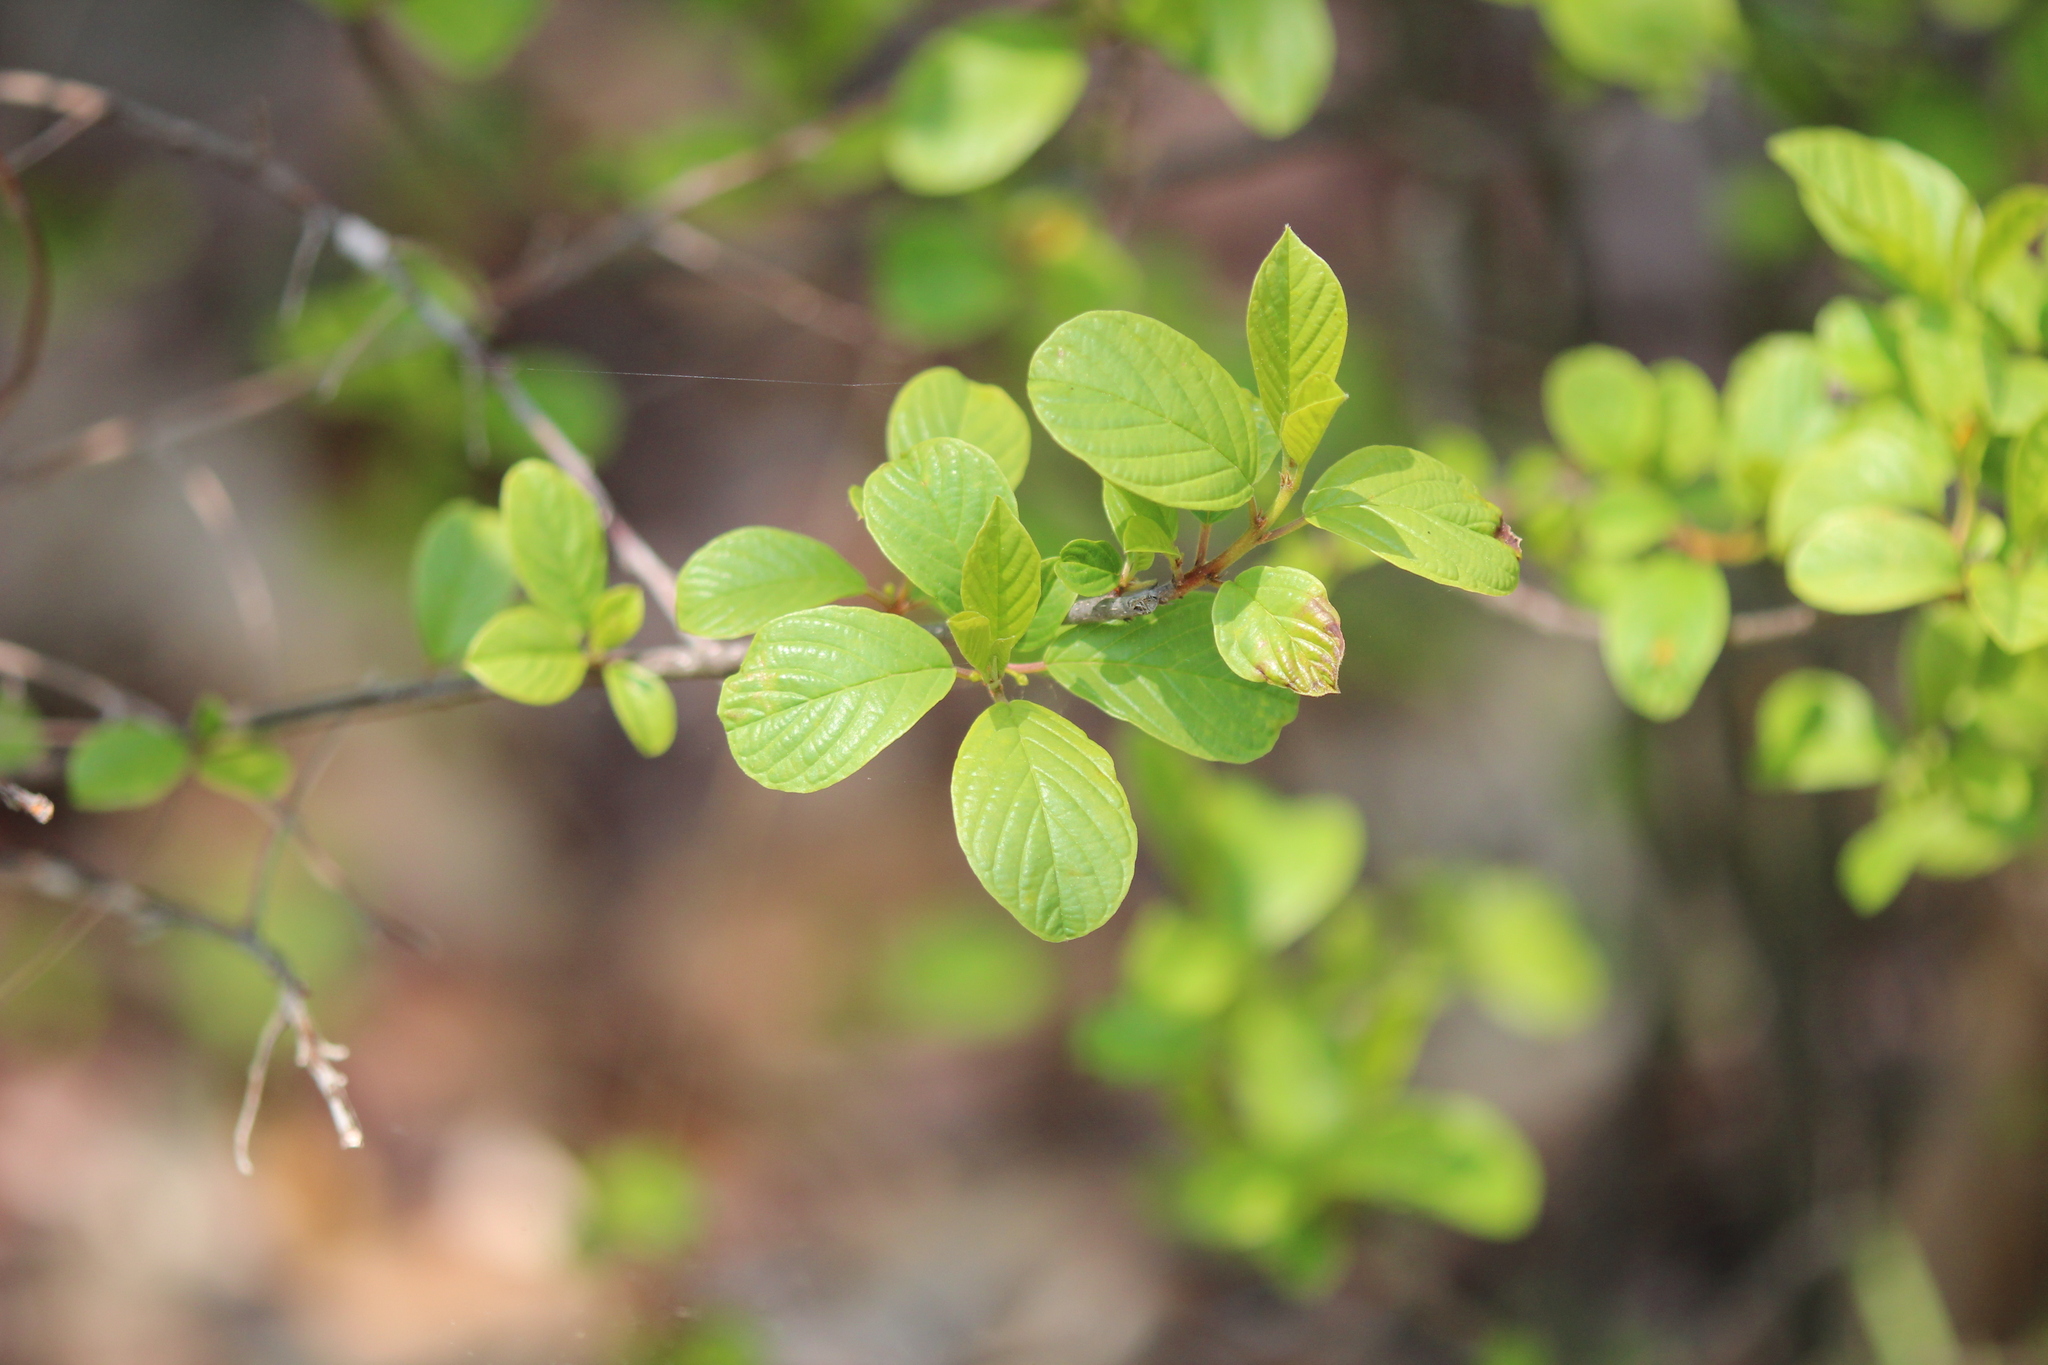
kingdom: Plantae
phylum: Tracheophyta
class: Magnoliopsida
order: Rosales
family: Rhamnaceae
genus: Frangula
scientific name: Frangula alnus
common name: Alder buckthorn
